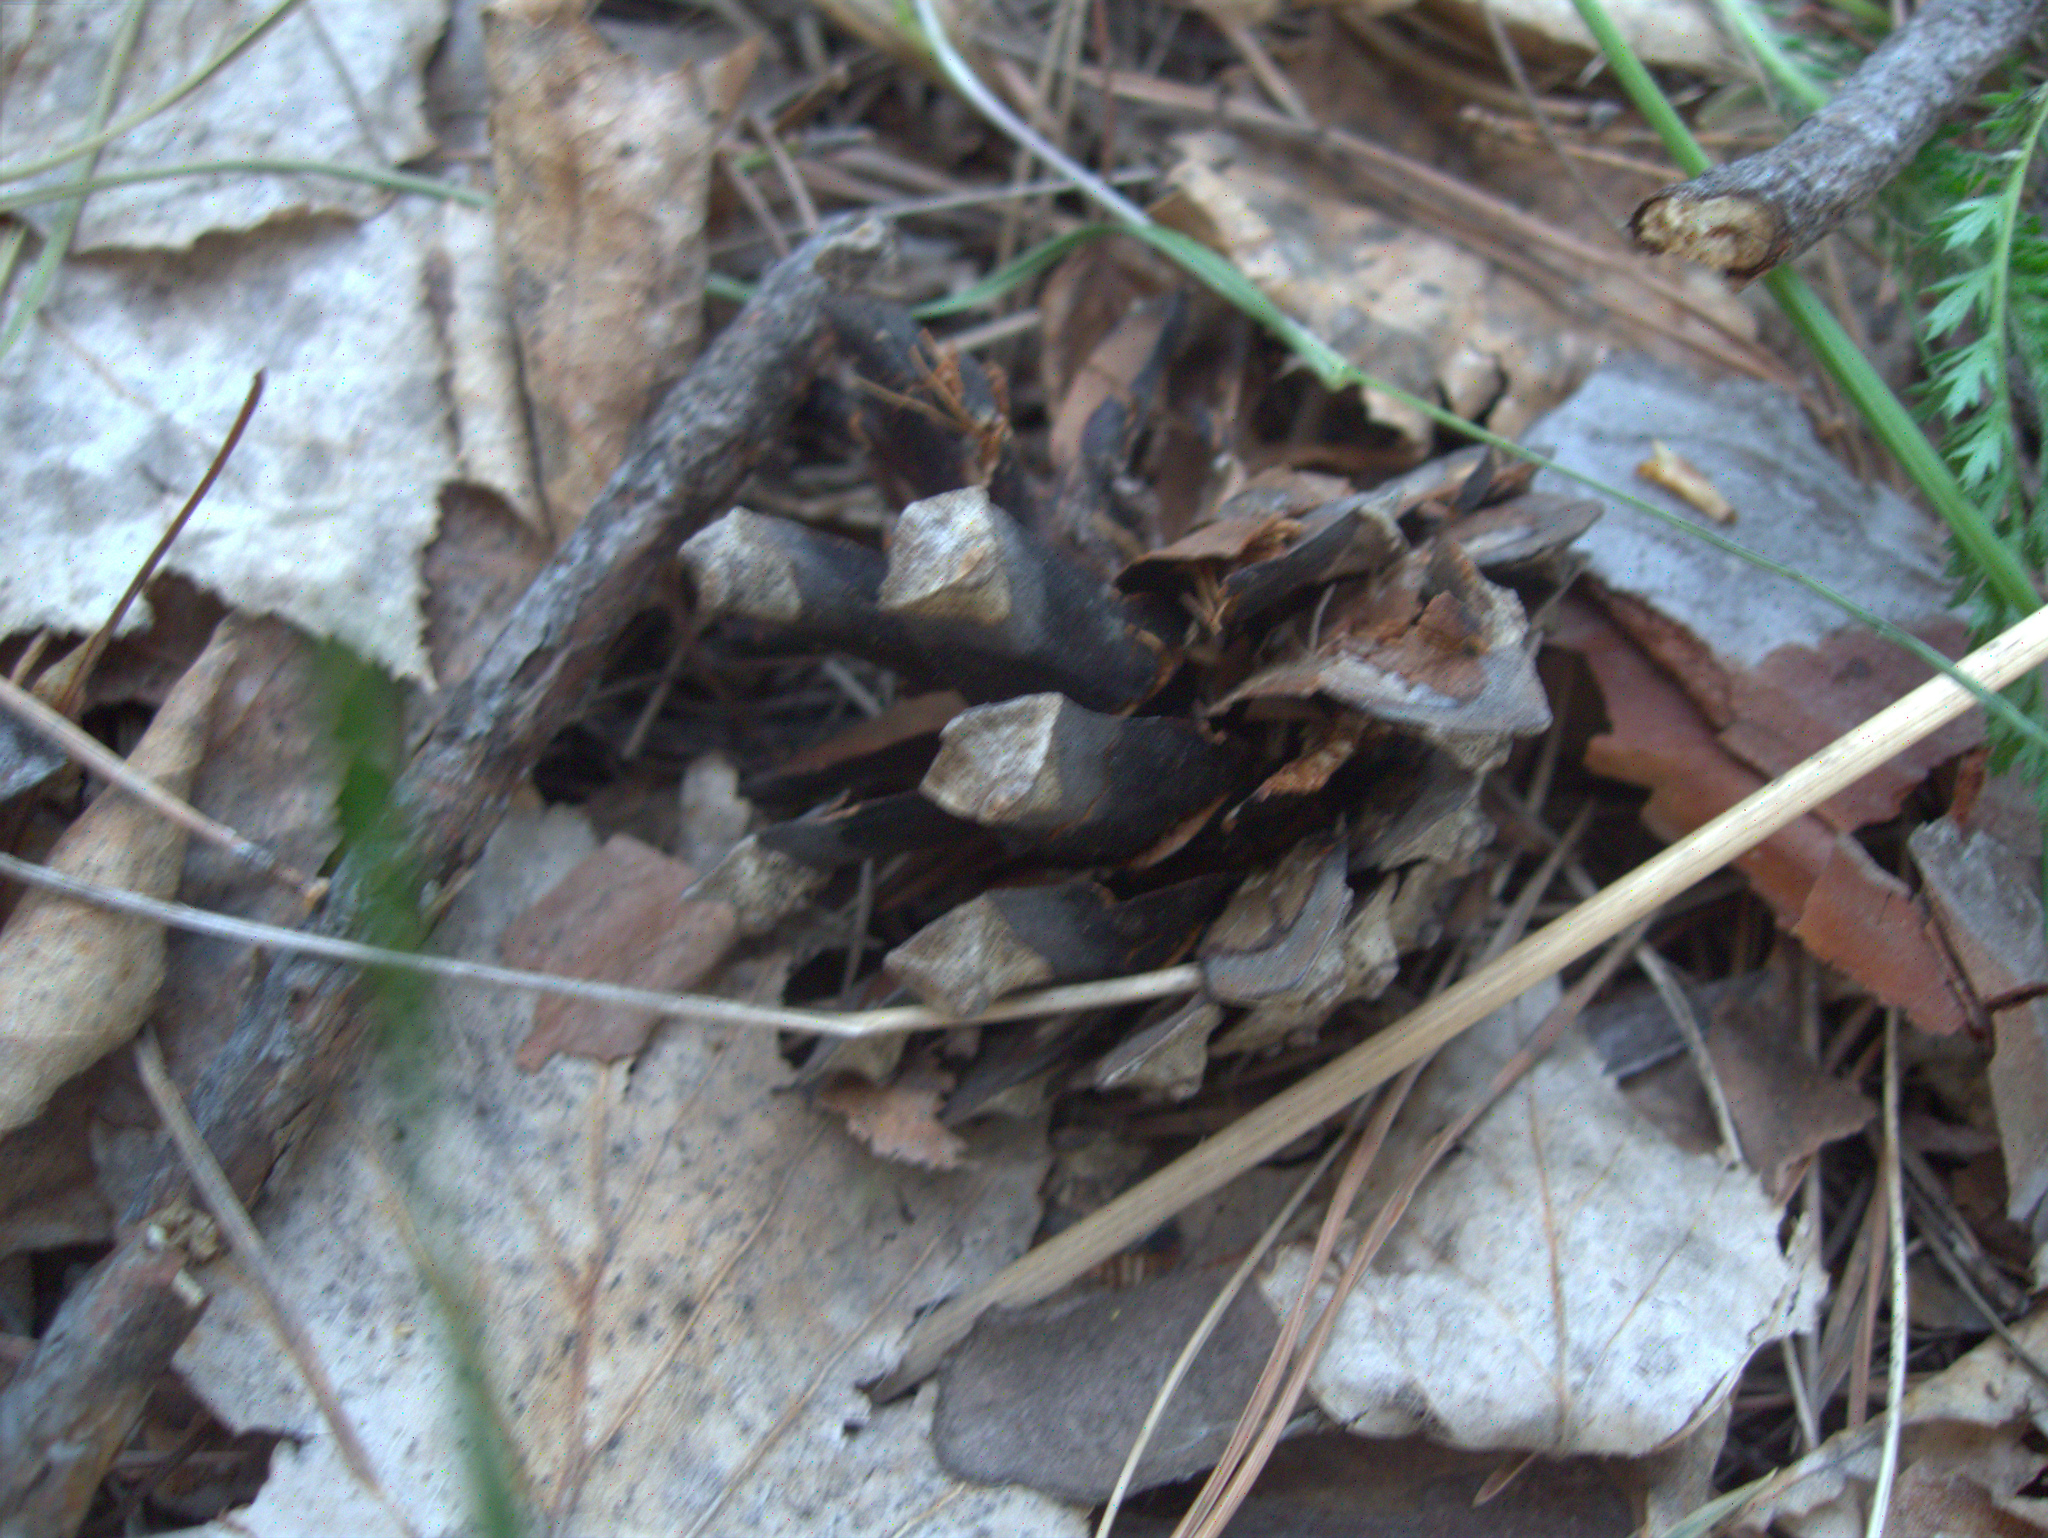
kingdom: Plantae
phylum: Tracheophyta
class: Pinopsida
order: Pinales
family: Pinaceae
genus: Pinus
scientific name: Pinus sylvestris
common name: Scots pine
